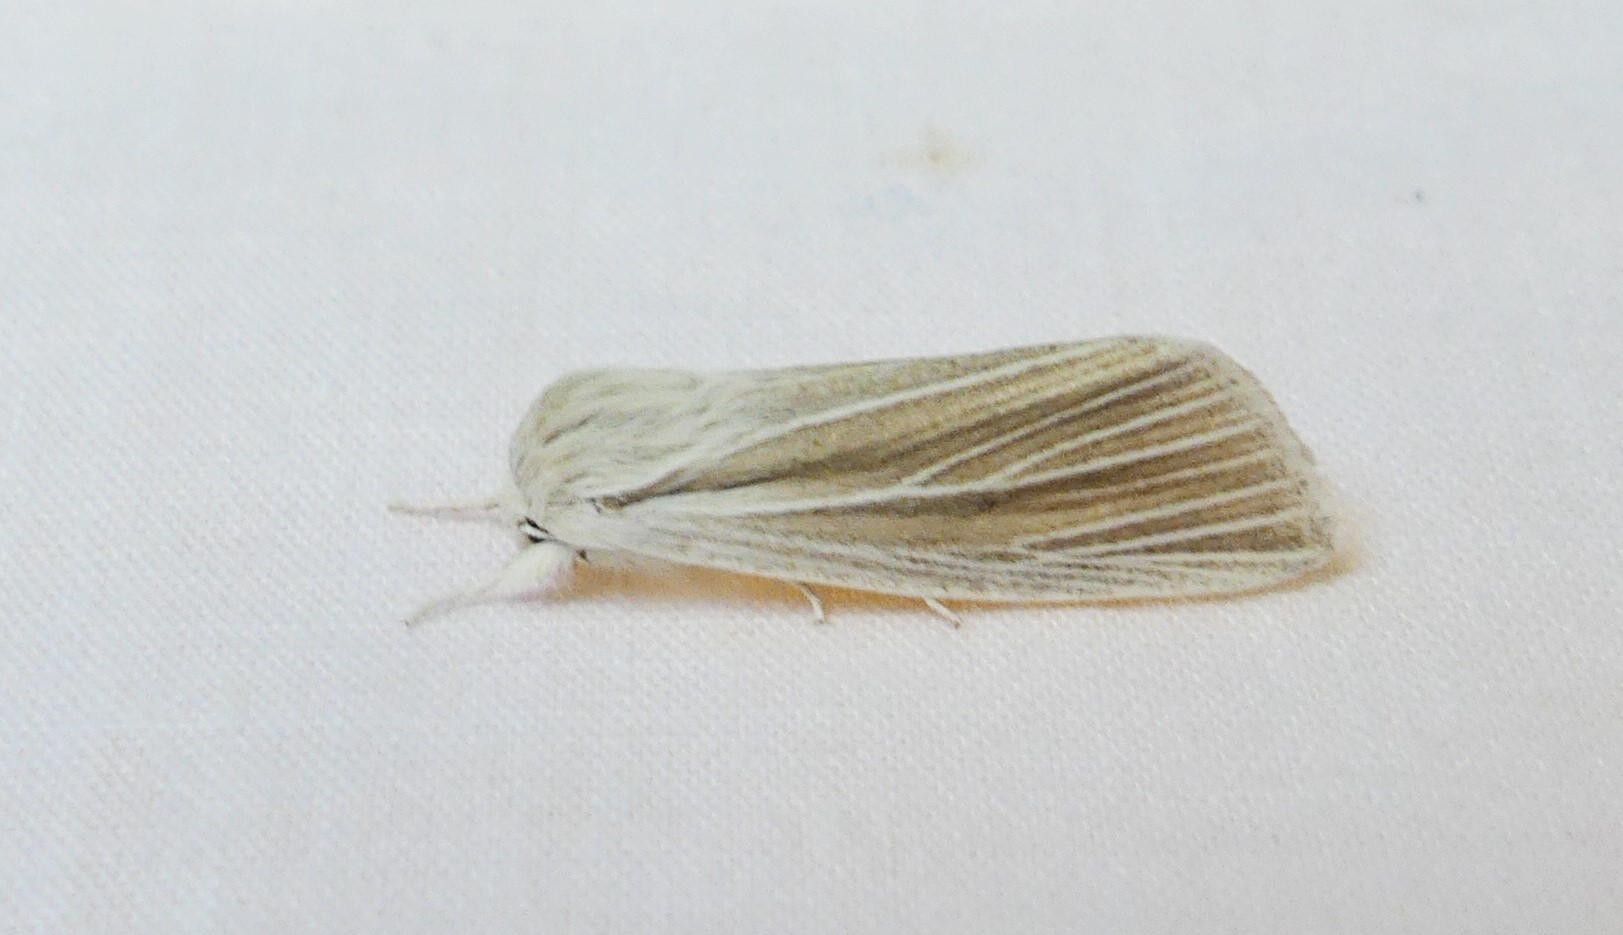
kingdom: Animalia
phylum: Arthropoda
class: Insecta
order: Lepidoptera
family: Noctuidae
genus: Acronicta
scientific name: Acronicta insularis
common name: Henry's marsh moth
